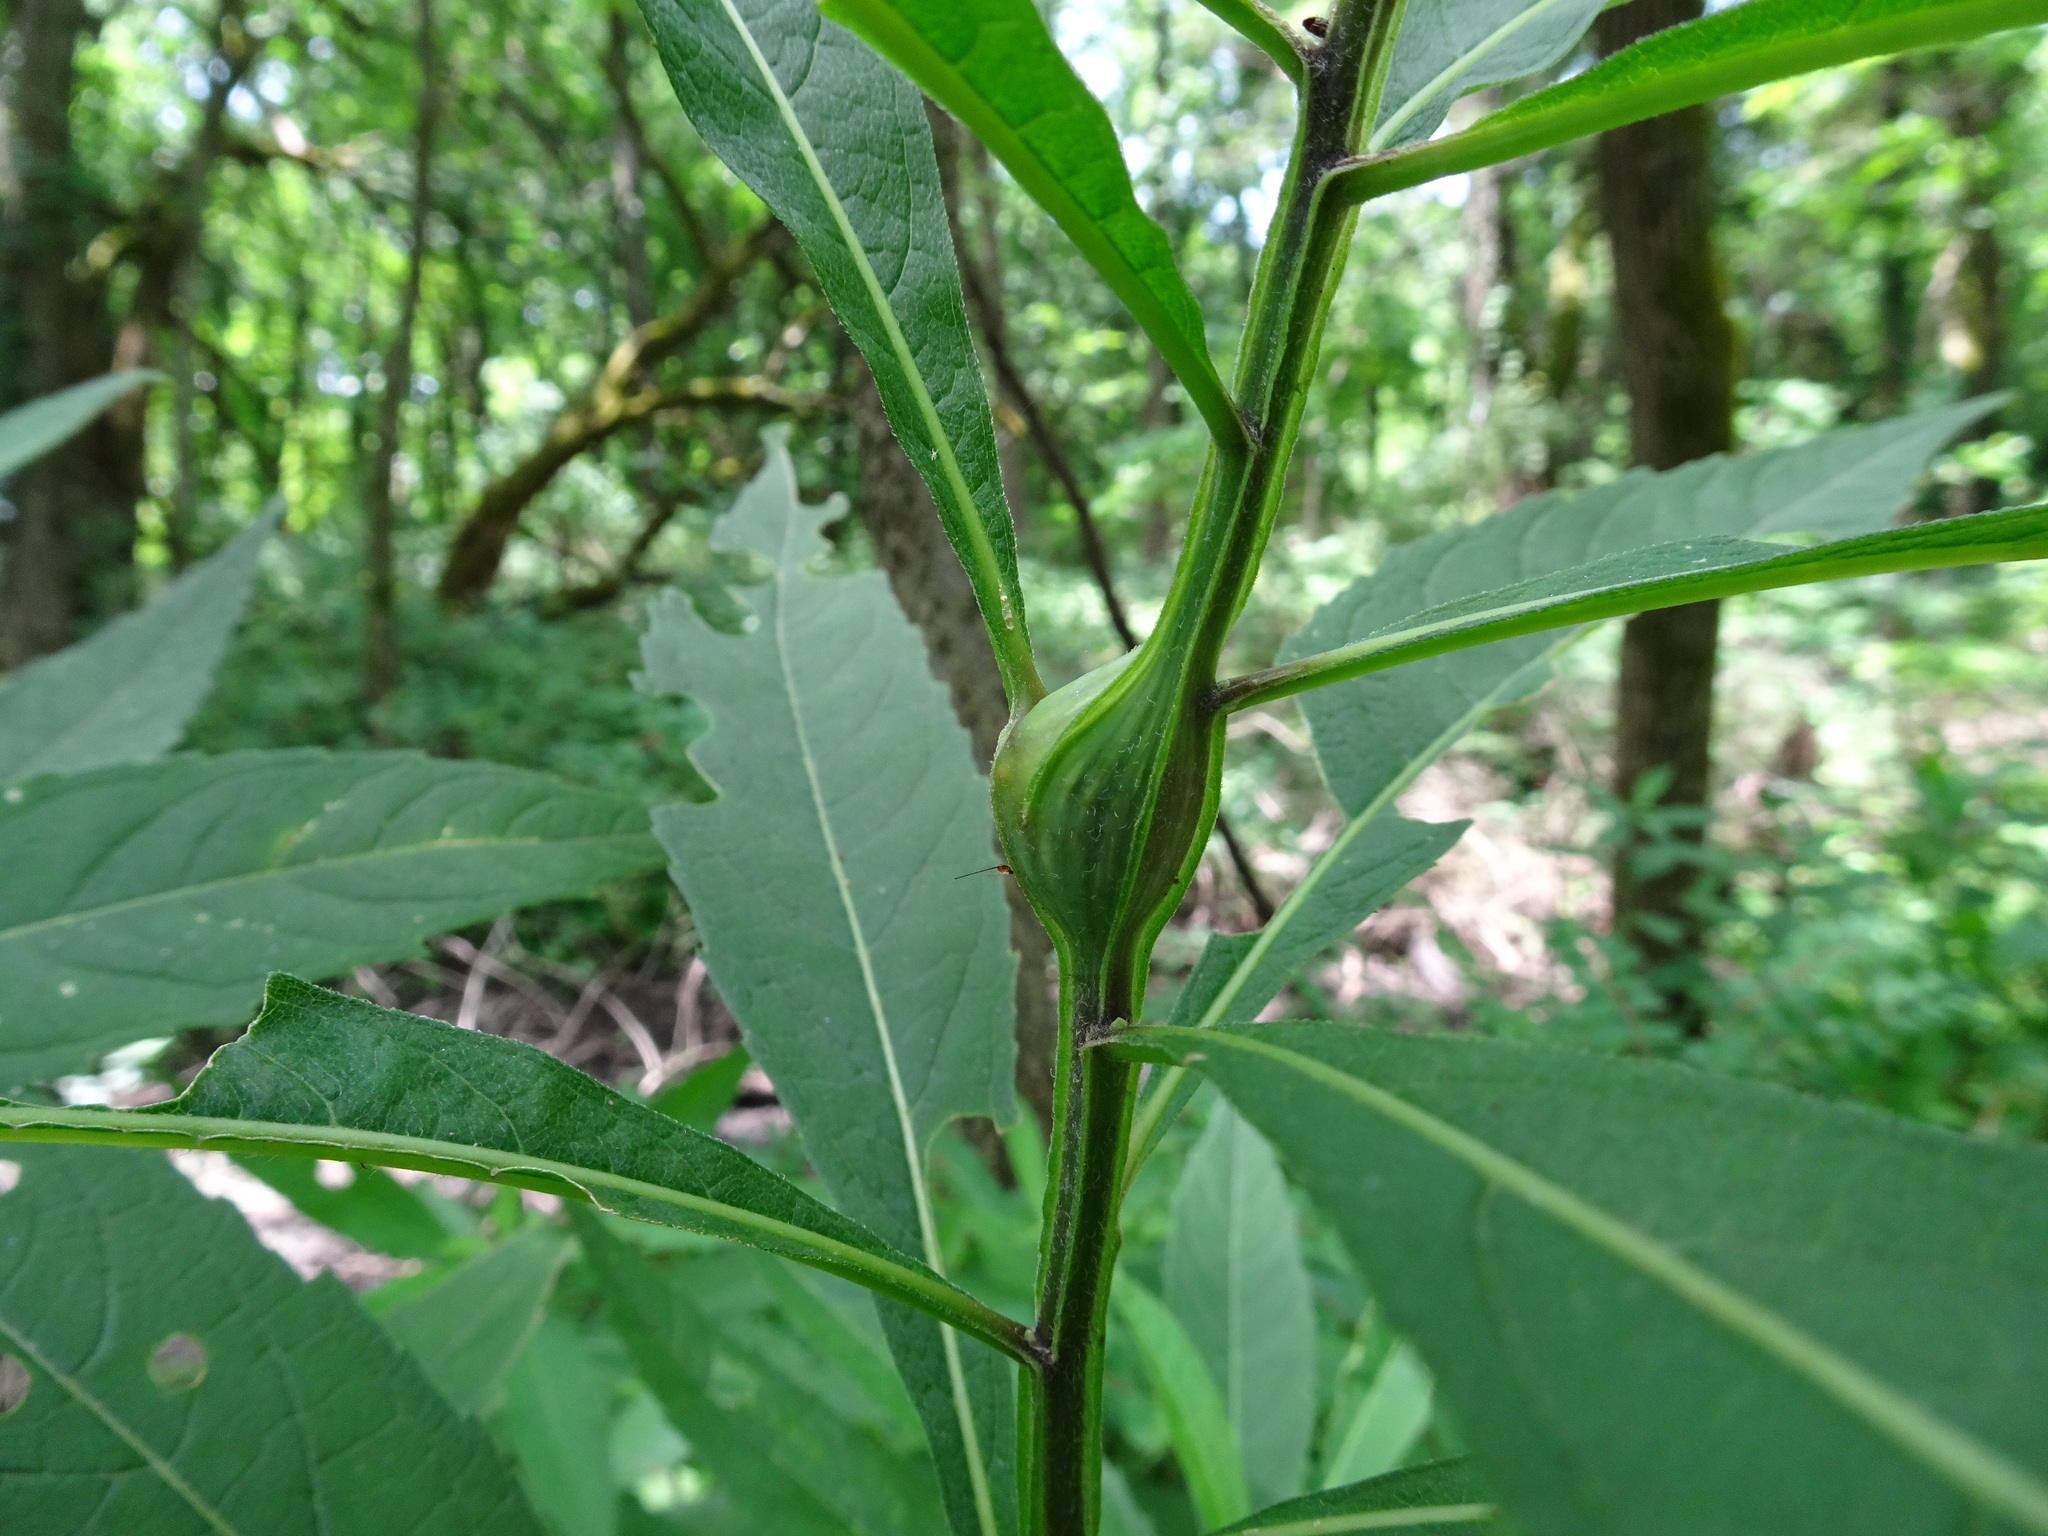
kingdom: Animalia
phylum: Arthropoda
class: Insecta
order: Diptera
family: Cecidomyiidae
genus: Neolasioptera
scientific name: Neolasioptera verbesinae
